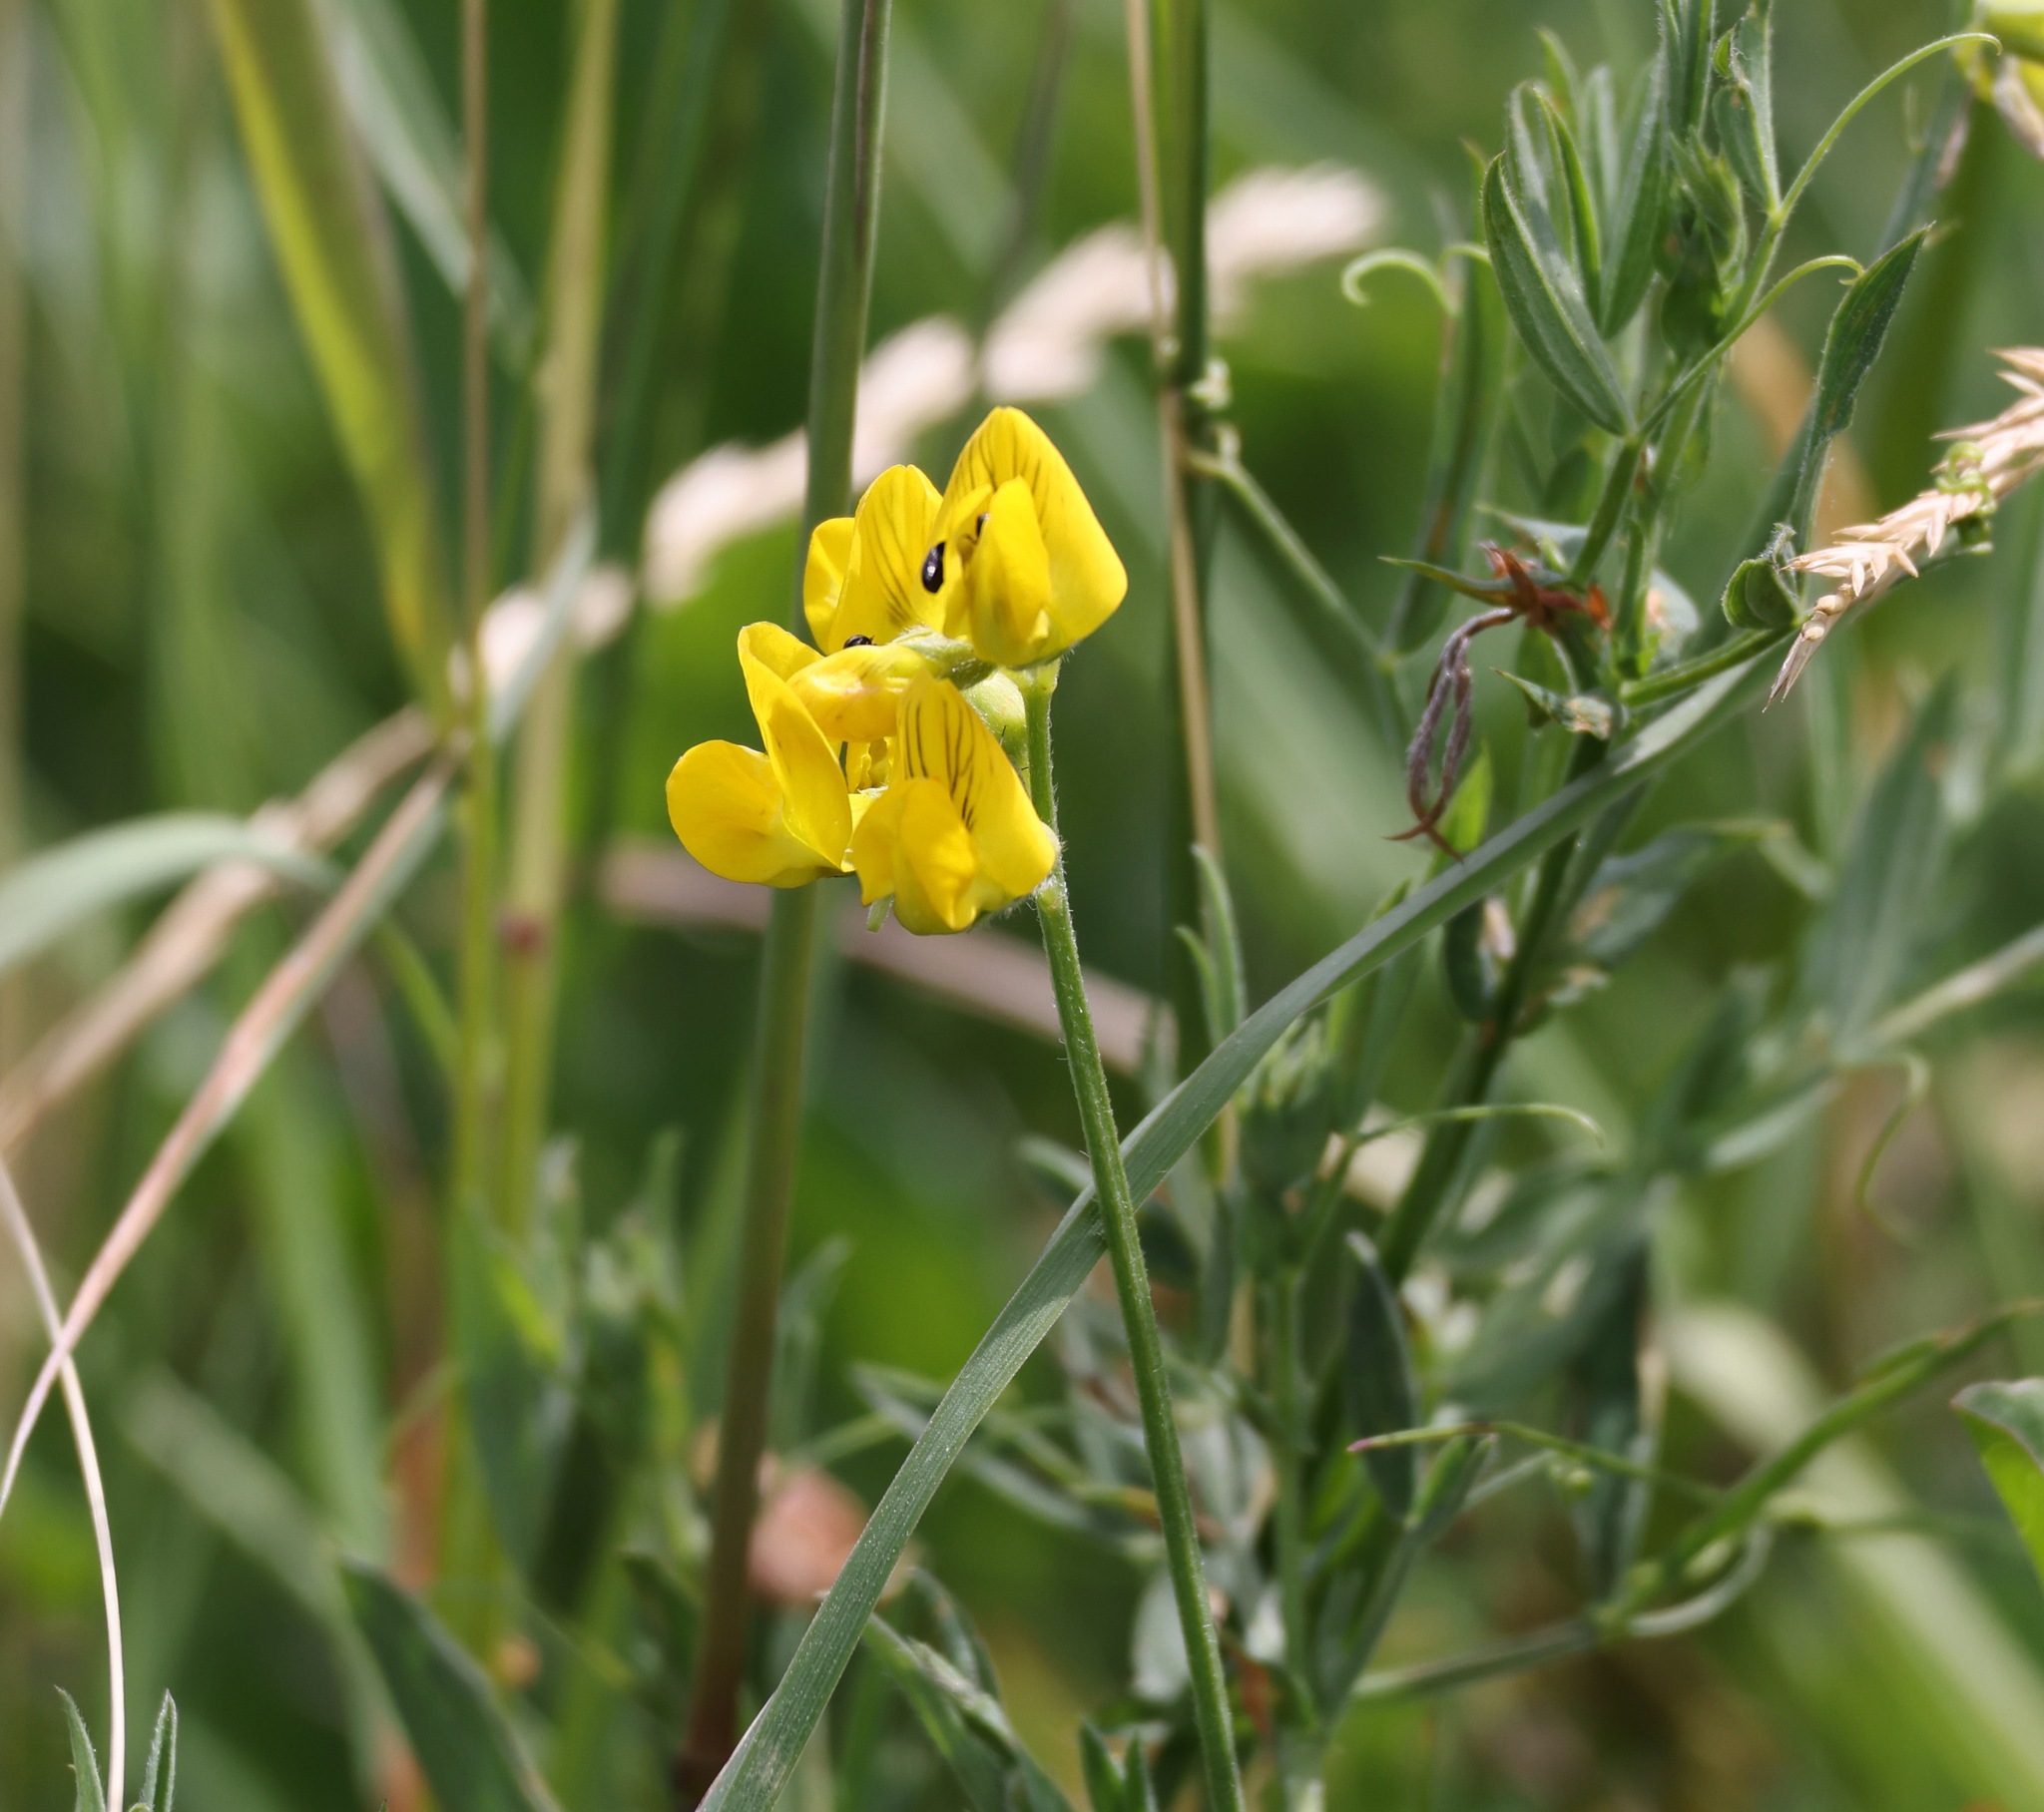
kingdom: Plantae
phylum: Tracheophyta
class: Magnoliopsida
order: Fabales
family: Fabaceae
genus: Lathyrus
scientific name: Lathyrus pratensis
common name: Meadow vetchling
